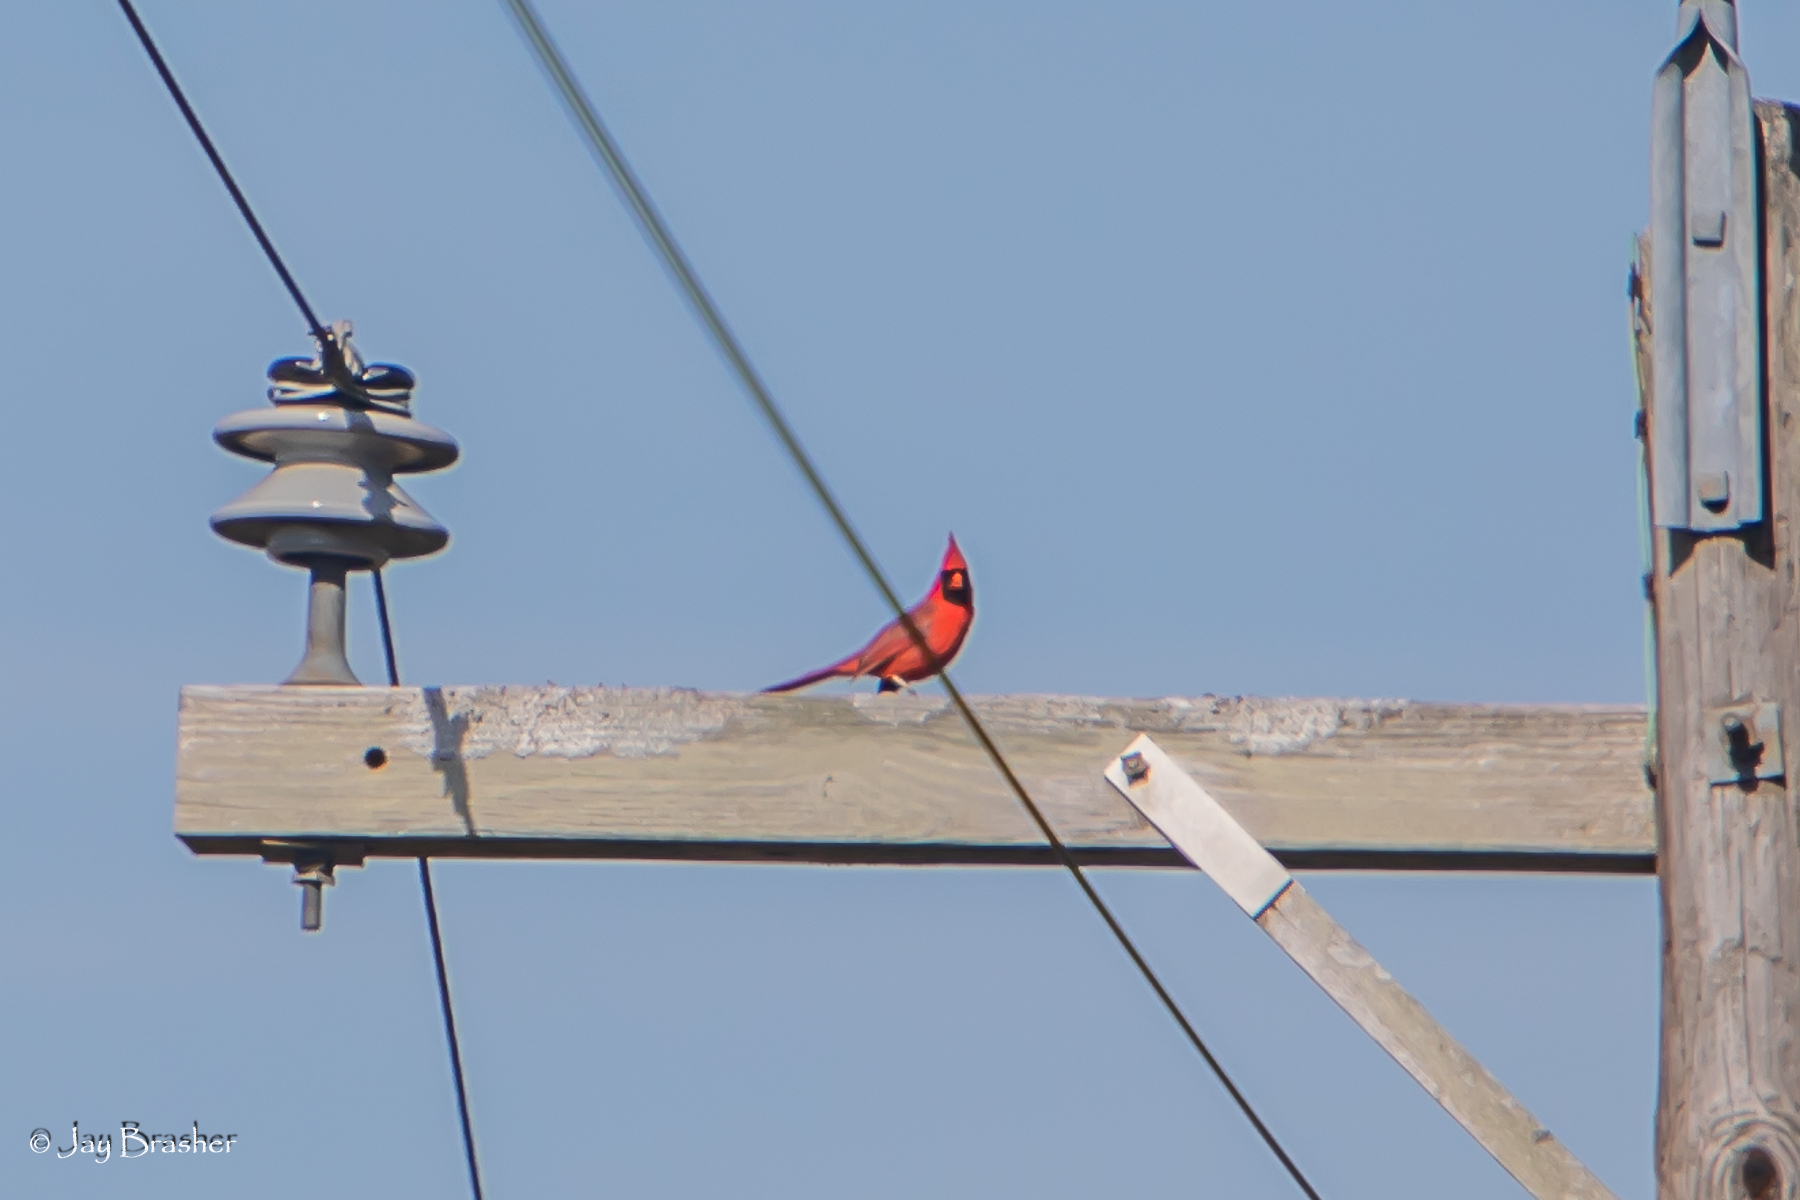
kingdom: Animalia
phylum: Chordata
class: Aves
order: Passeriformes
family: Cardinalidae
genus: Cardinalis
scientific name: Cardinalis cardinalis
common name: Northern cardinal
